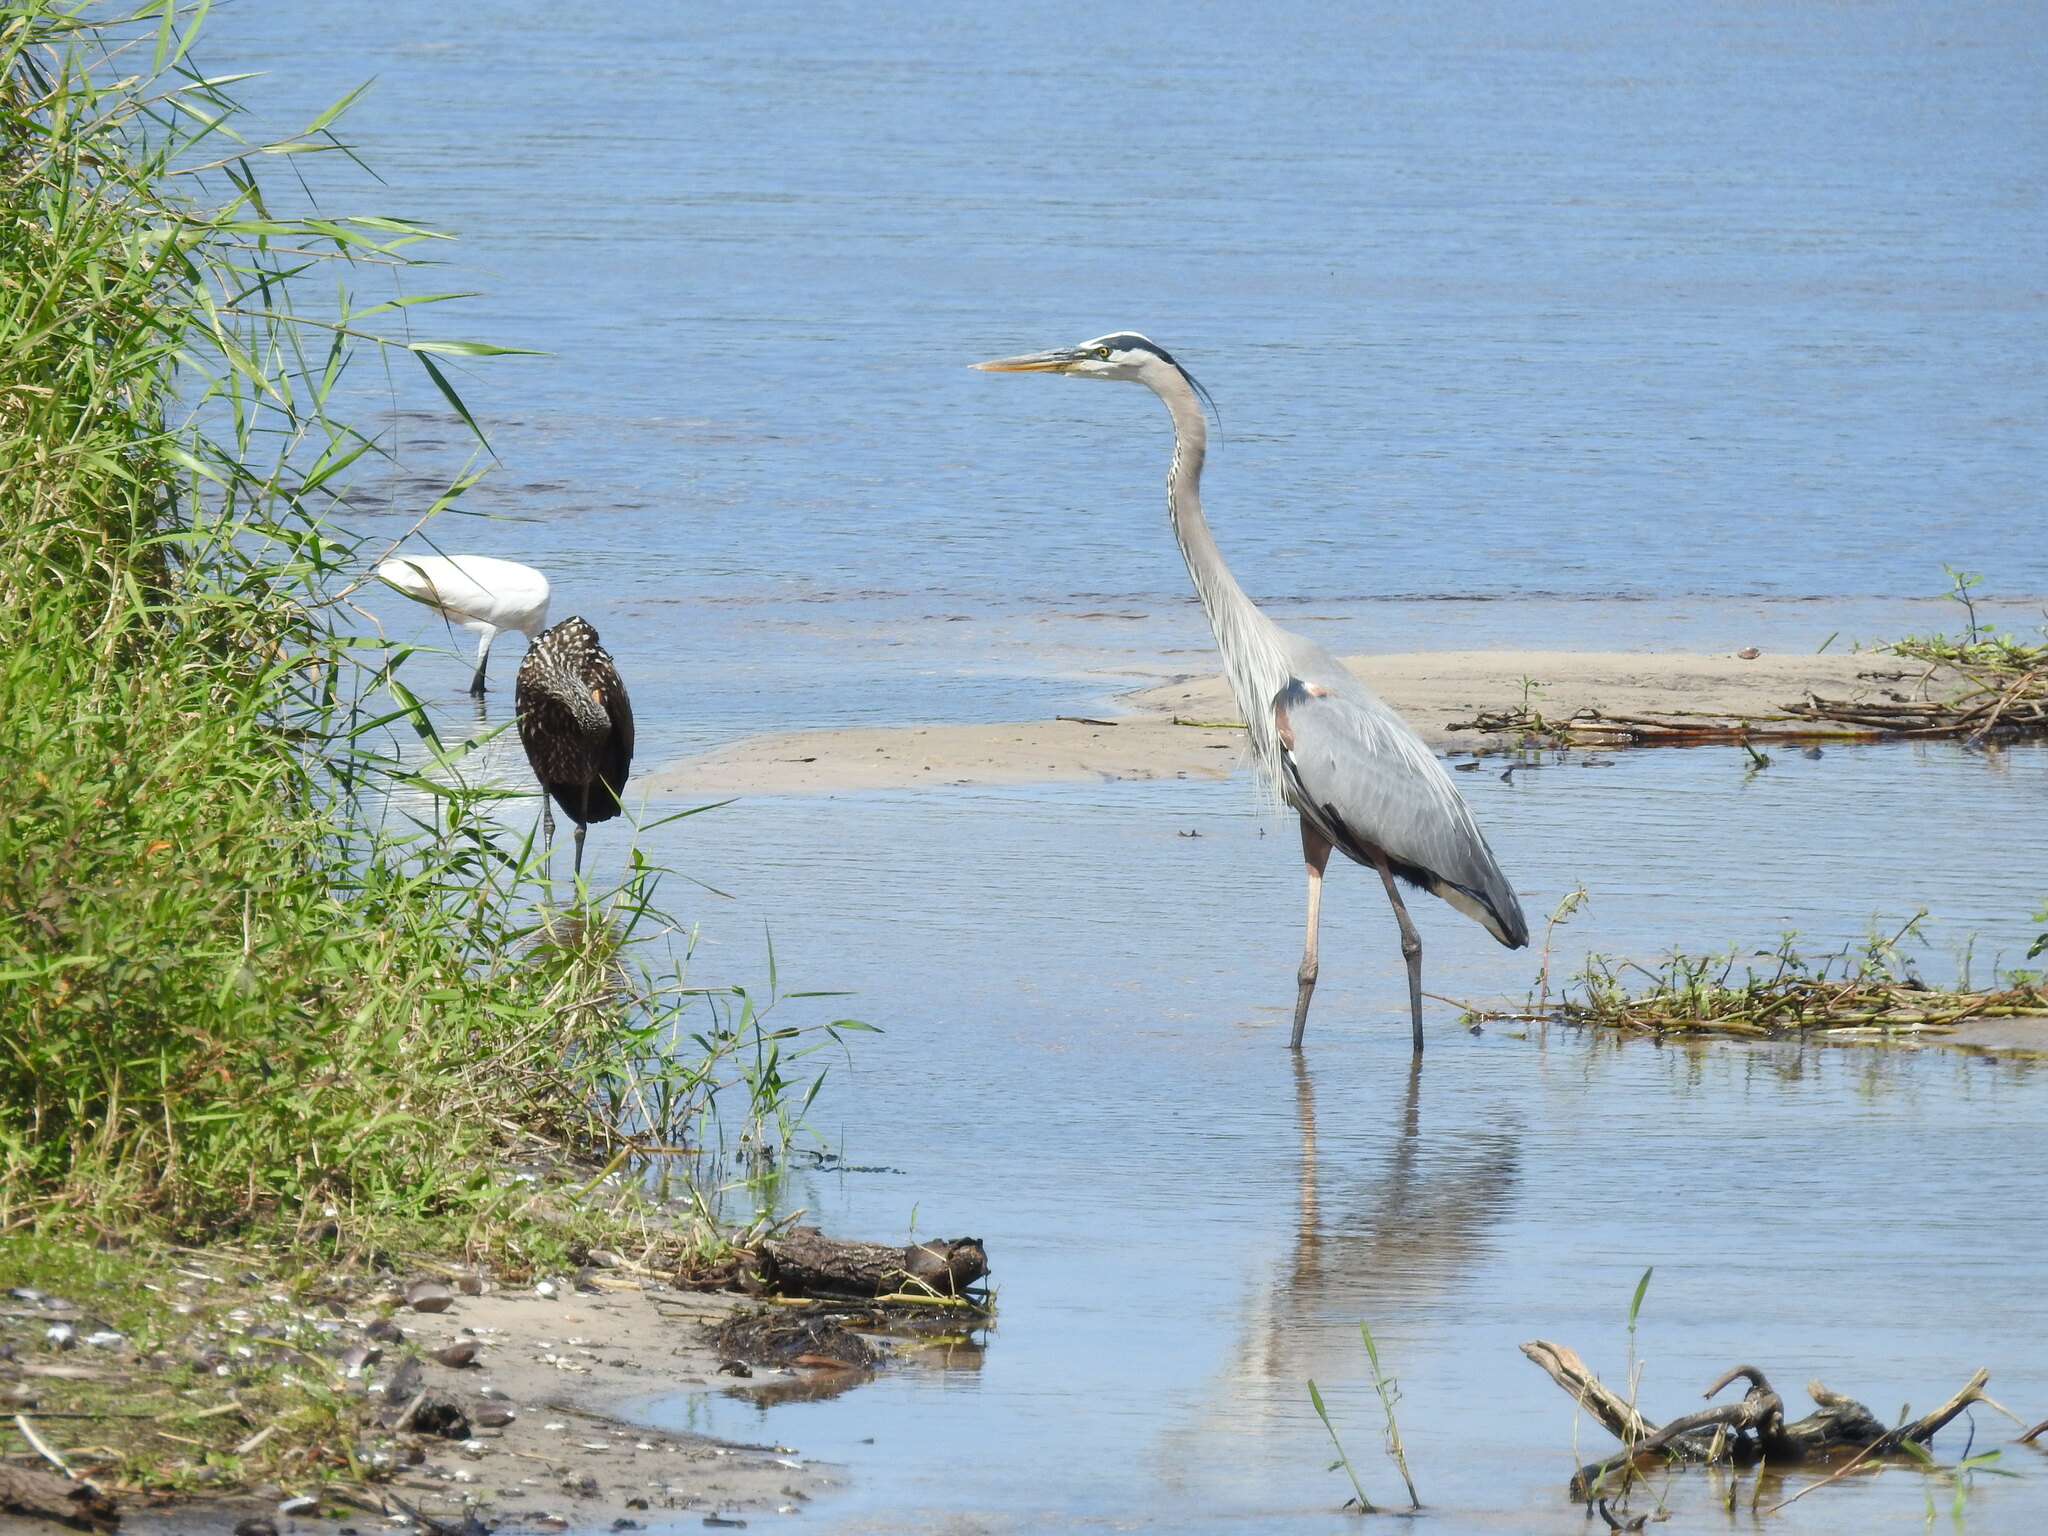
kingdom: Animalia
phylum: Chordata
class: Aves
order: Pelecaniformes
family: Ardeidae
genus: Ardea
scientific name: Ardea herodias
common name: Great blue heron
